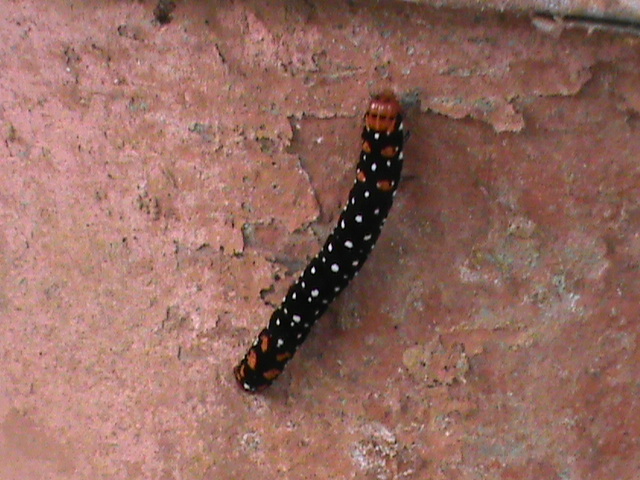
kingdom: Animalia
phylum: Arthropoda
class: Insecta
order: Lepidoptera
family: Noctuidae
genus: Polytela
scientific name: Polytela gloriosae
